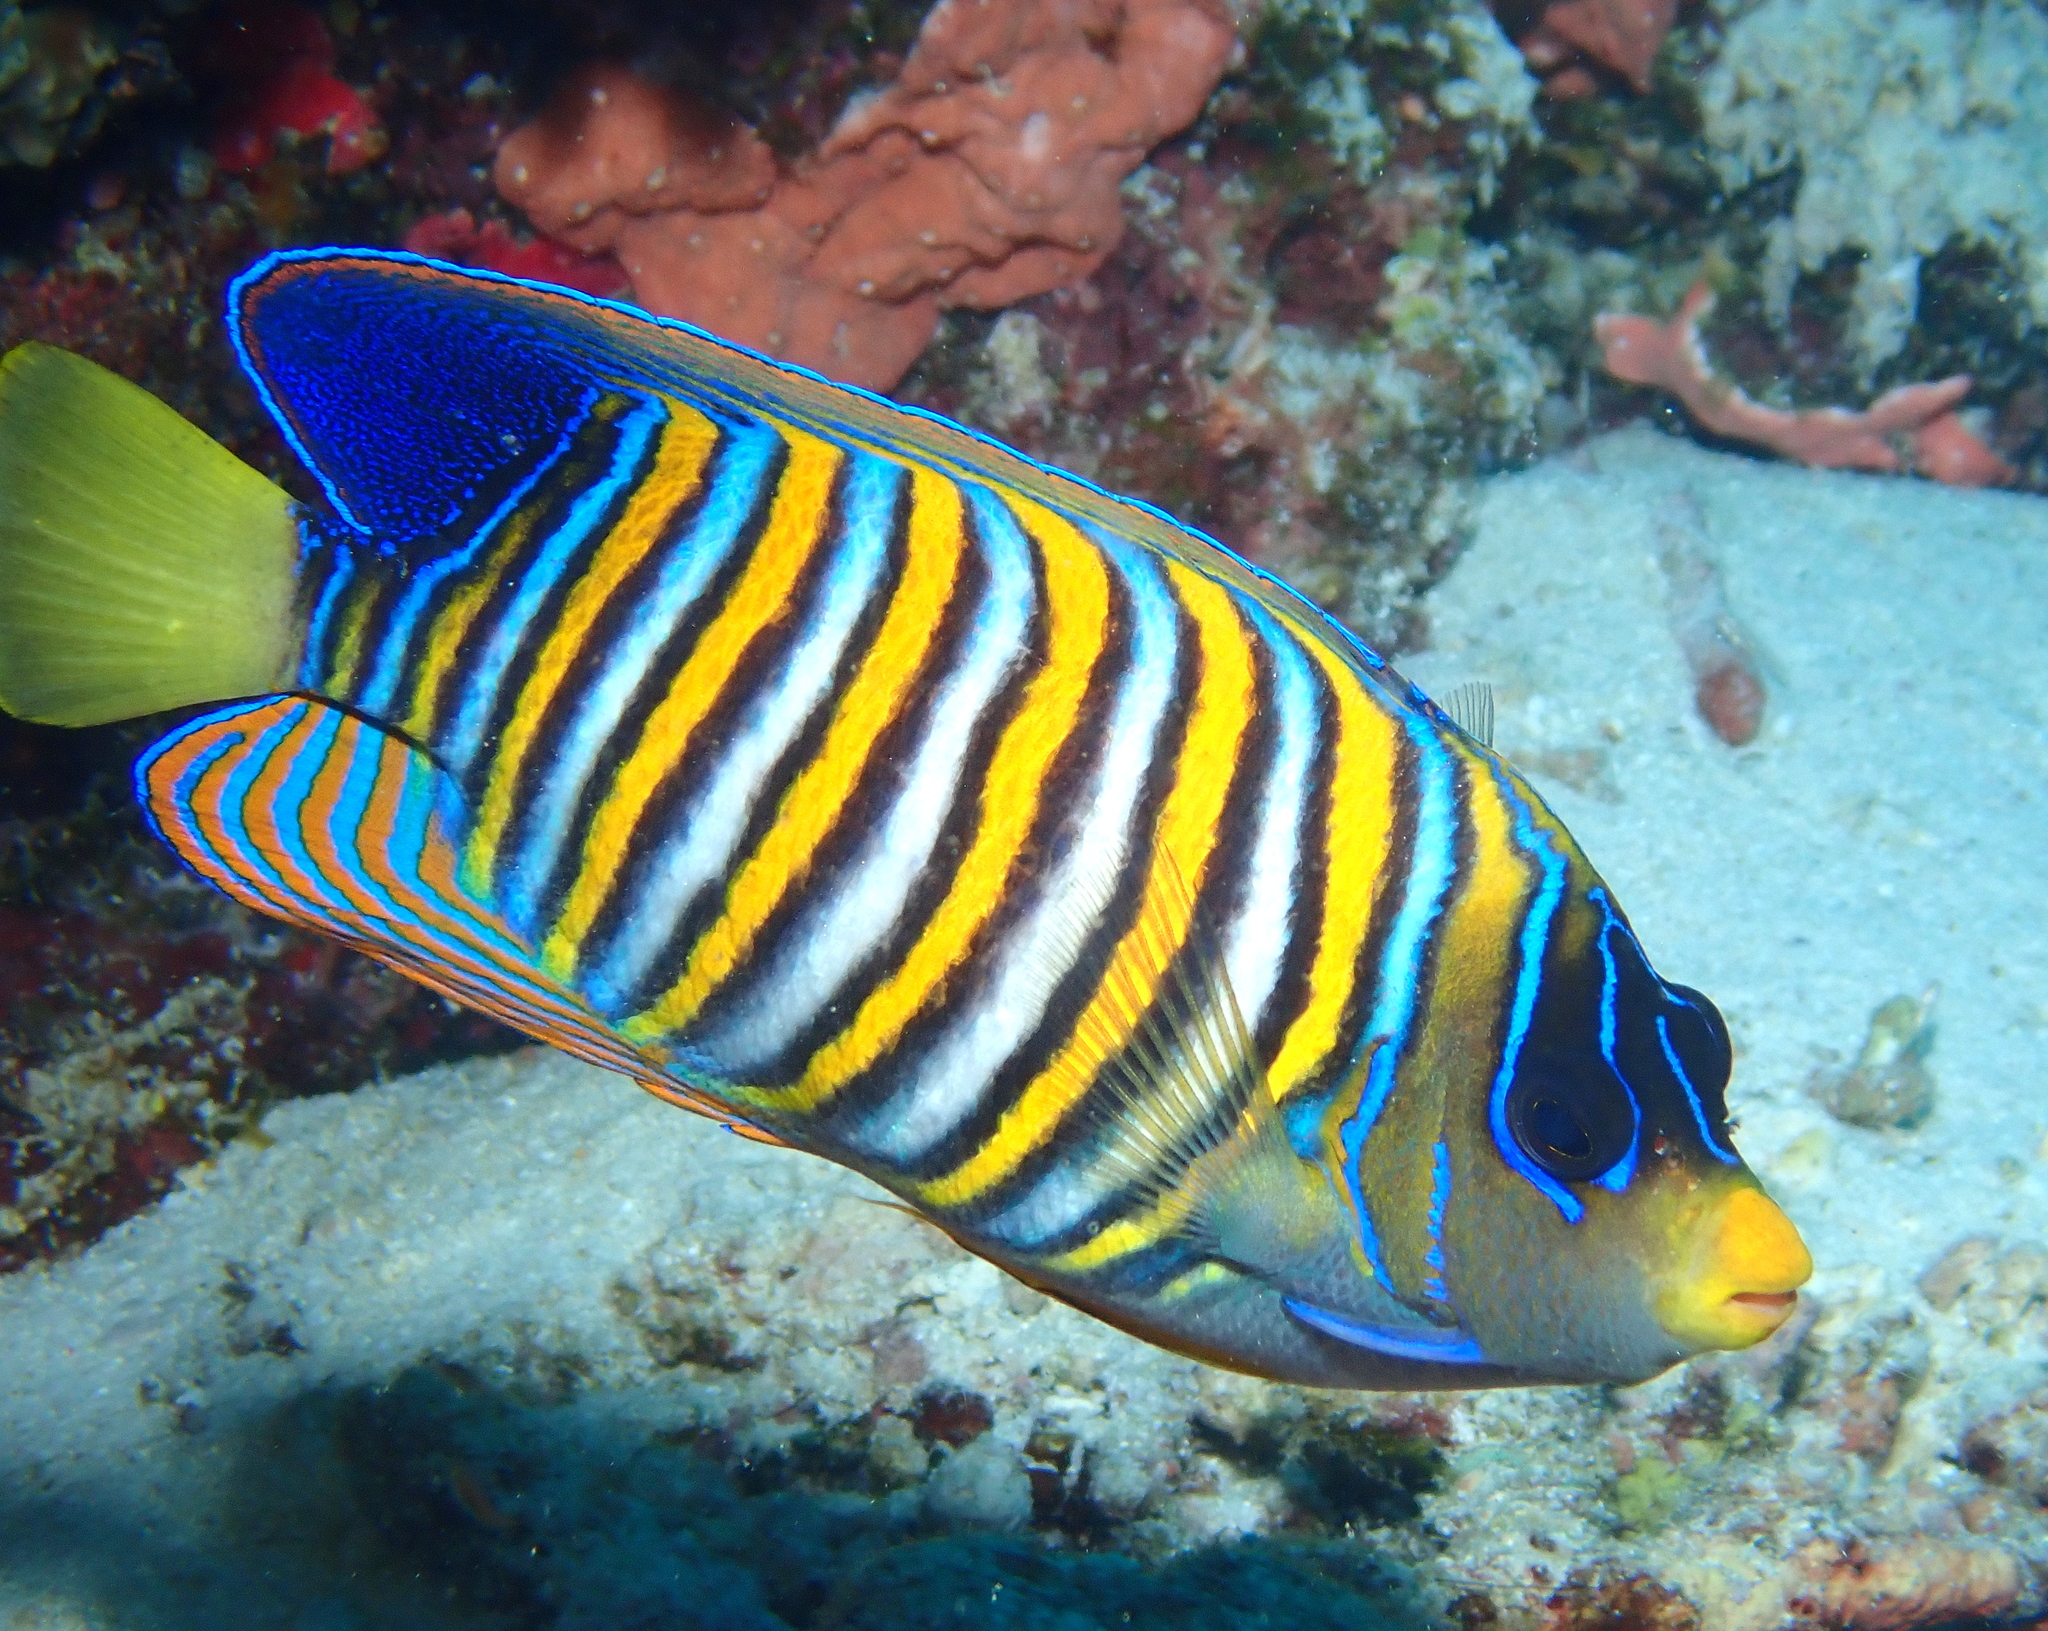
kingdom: Animalia
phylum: Chordata
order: Perciformes
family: Pomacanthidae
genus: Pygoplites
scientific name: Pygoplites diacanthus
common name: Regal angelfish
